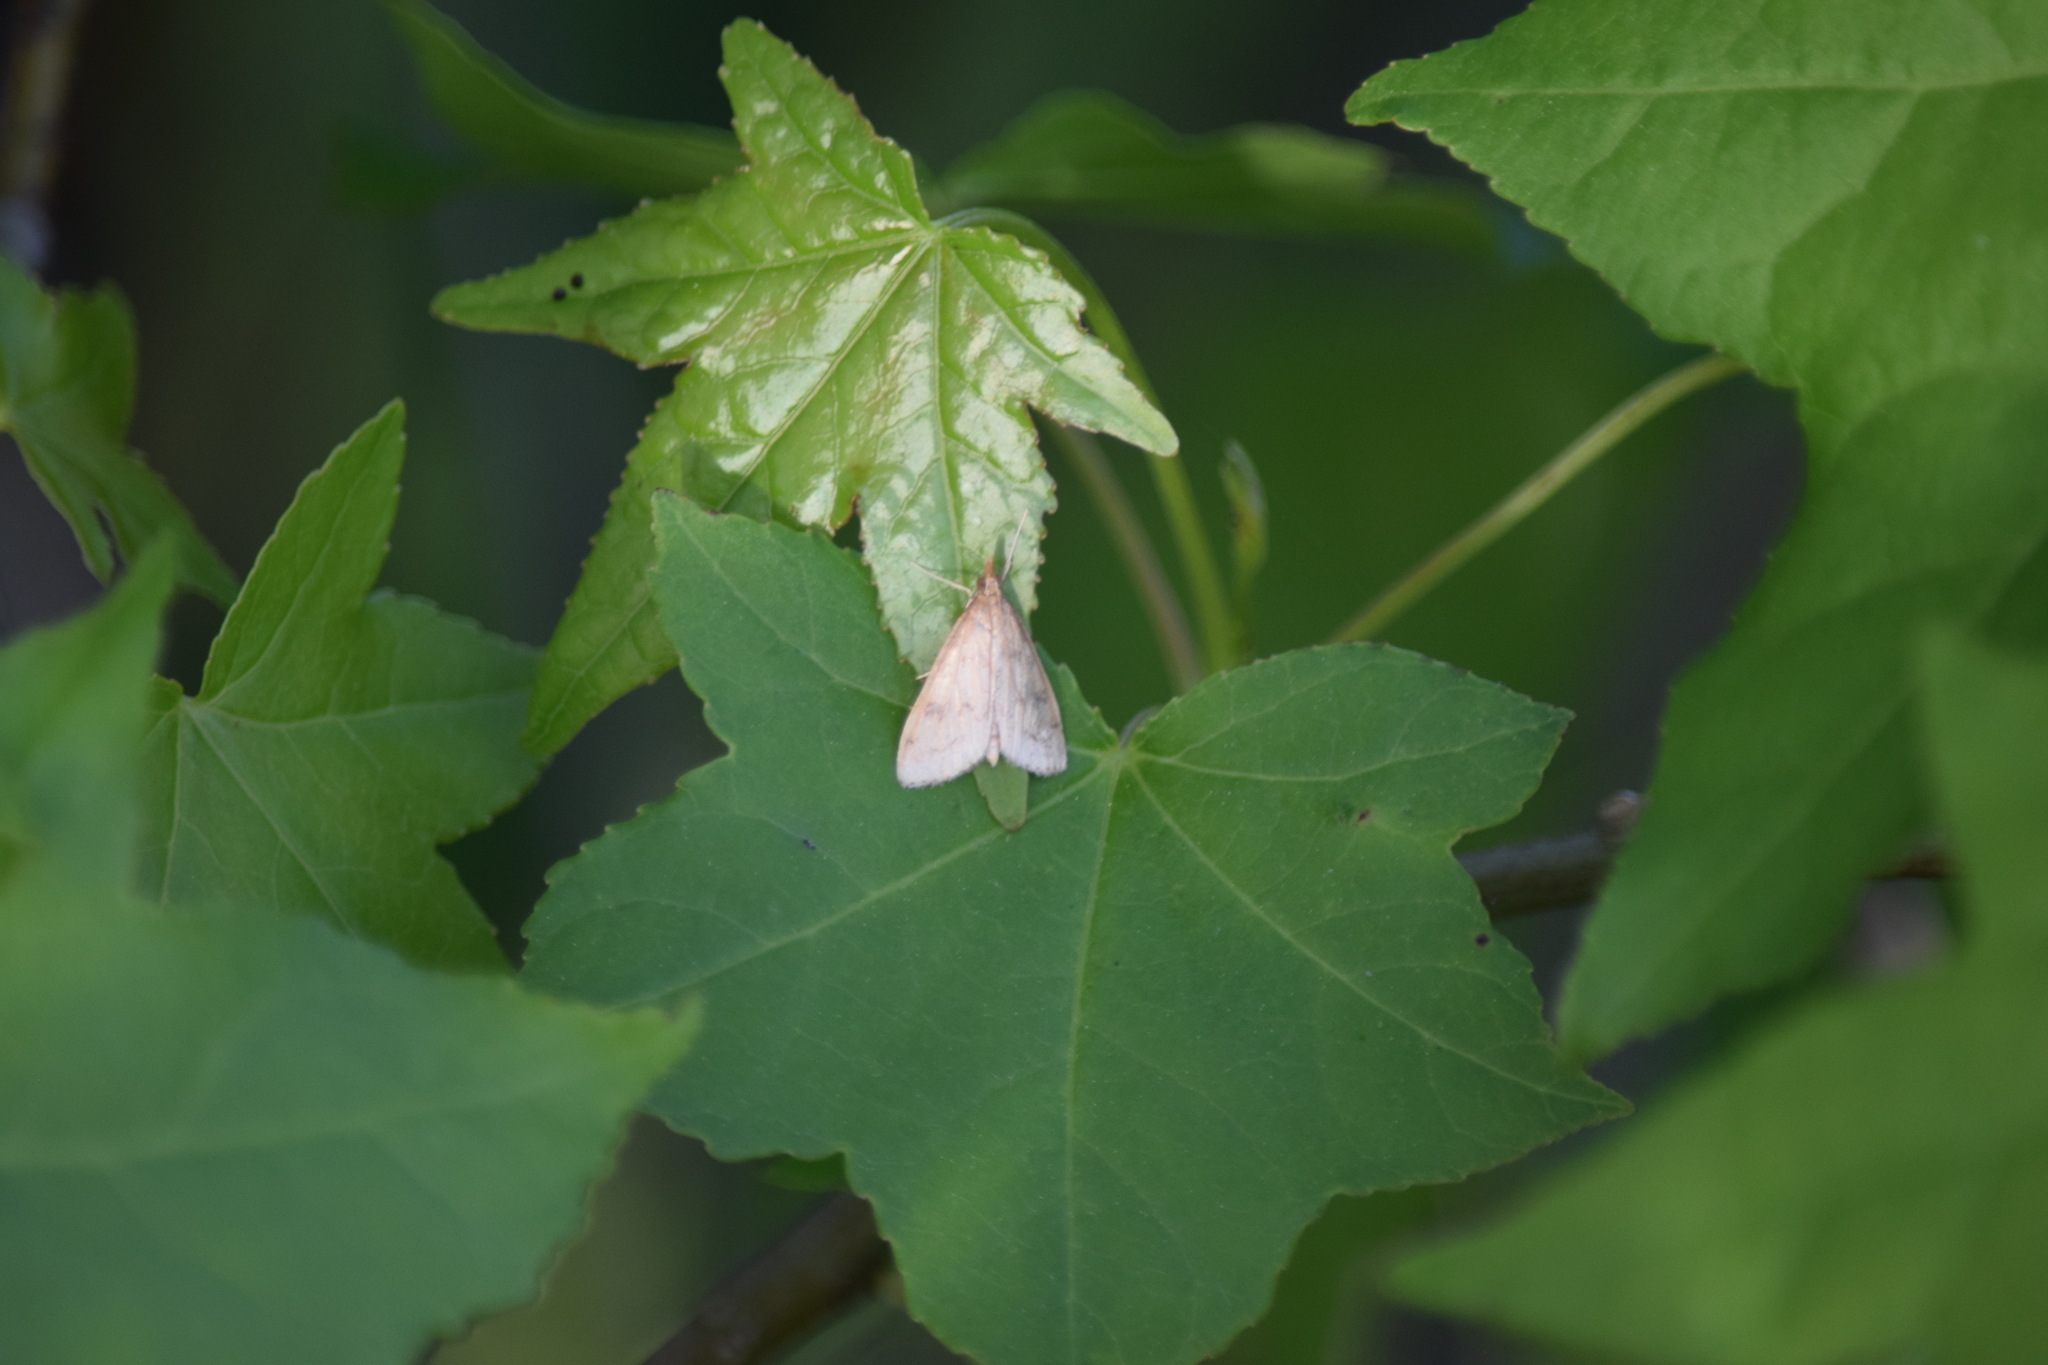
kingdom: Animalia
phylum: Arthropoda
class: Insecta
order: Lepidoptera
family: Crambidae
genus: Udea
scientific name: Udea rubigalis
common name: Celery leaftier moth
